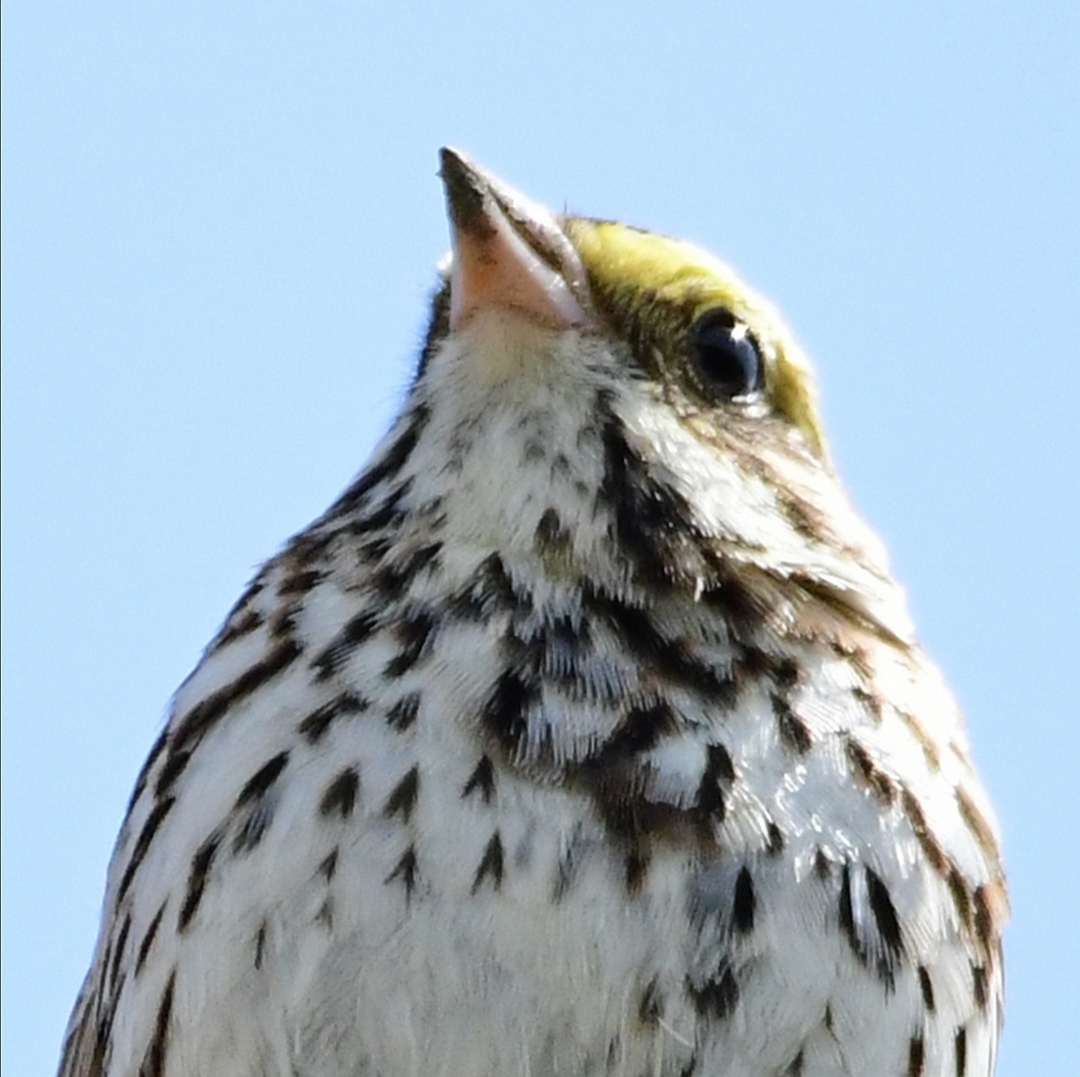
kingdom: Animalia
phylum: Chordata
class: Aves
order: Passeriformes
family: Passerellidae
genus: Passerculus
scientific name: Passerculus sandwichensis
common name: Savannah sparrow
